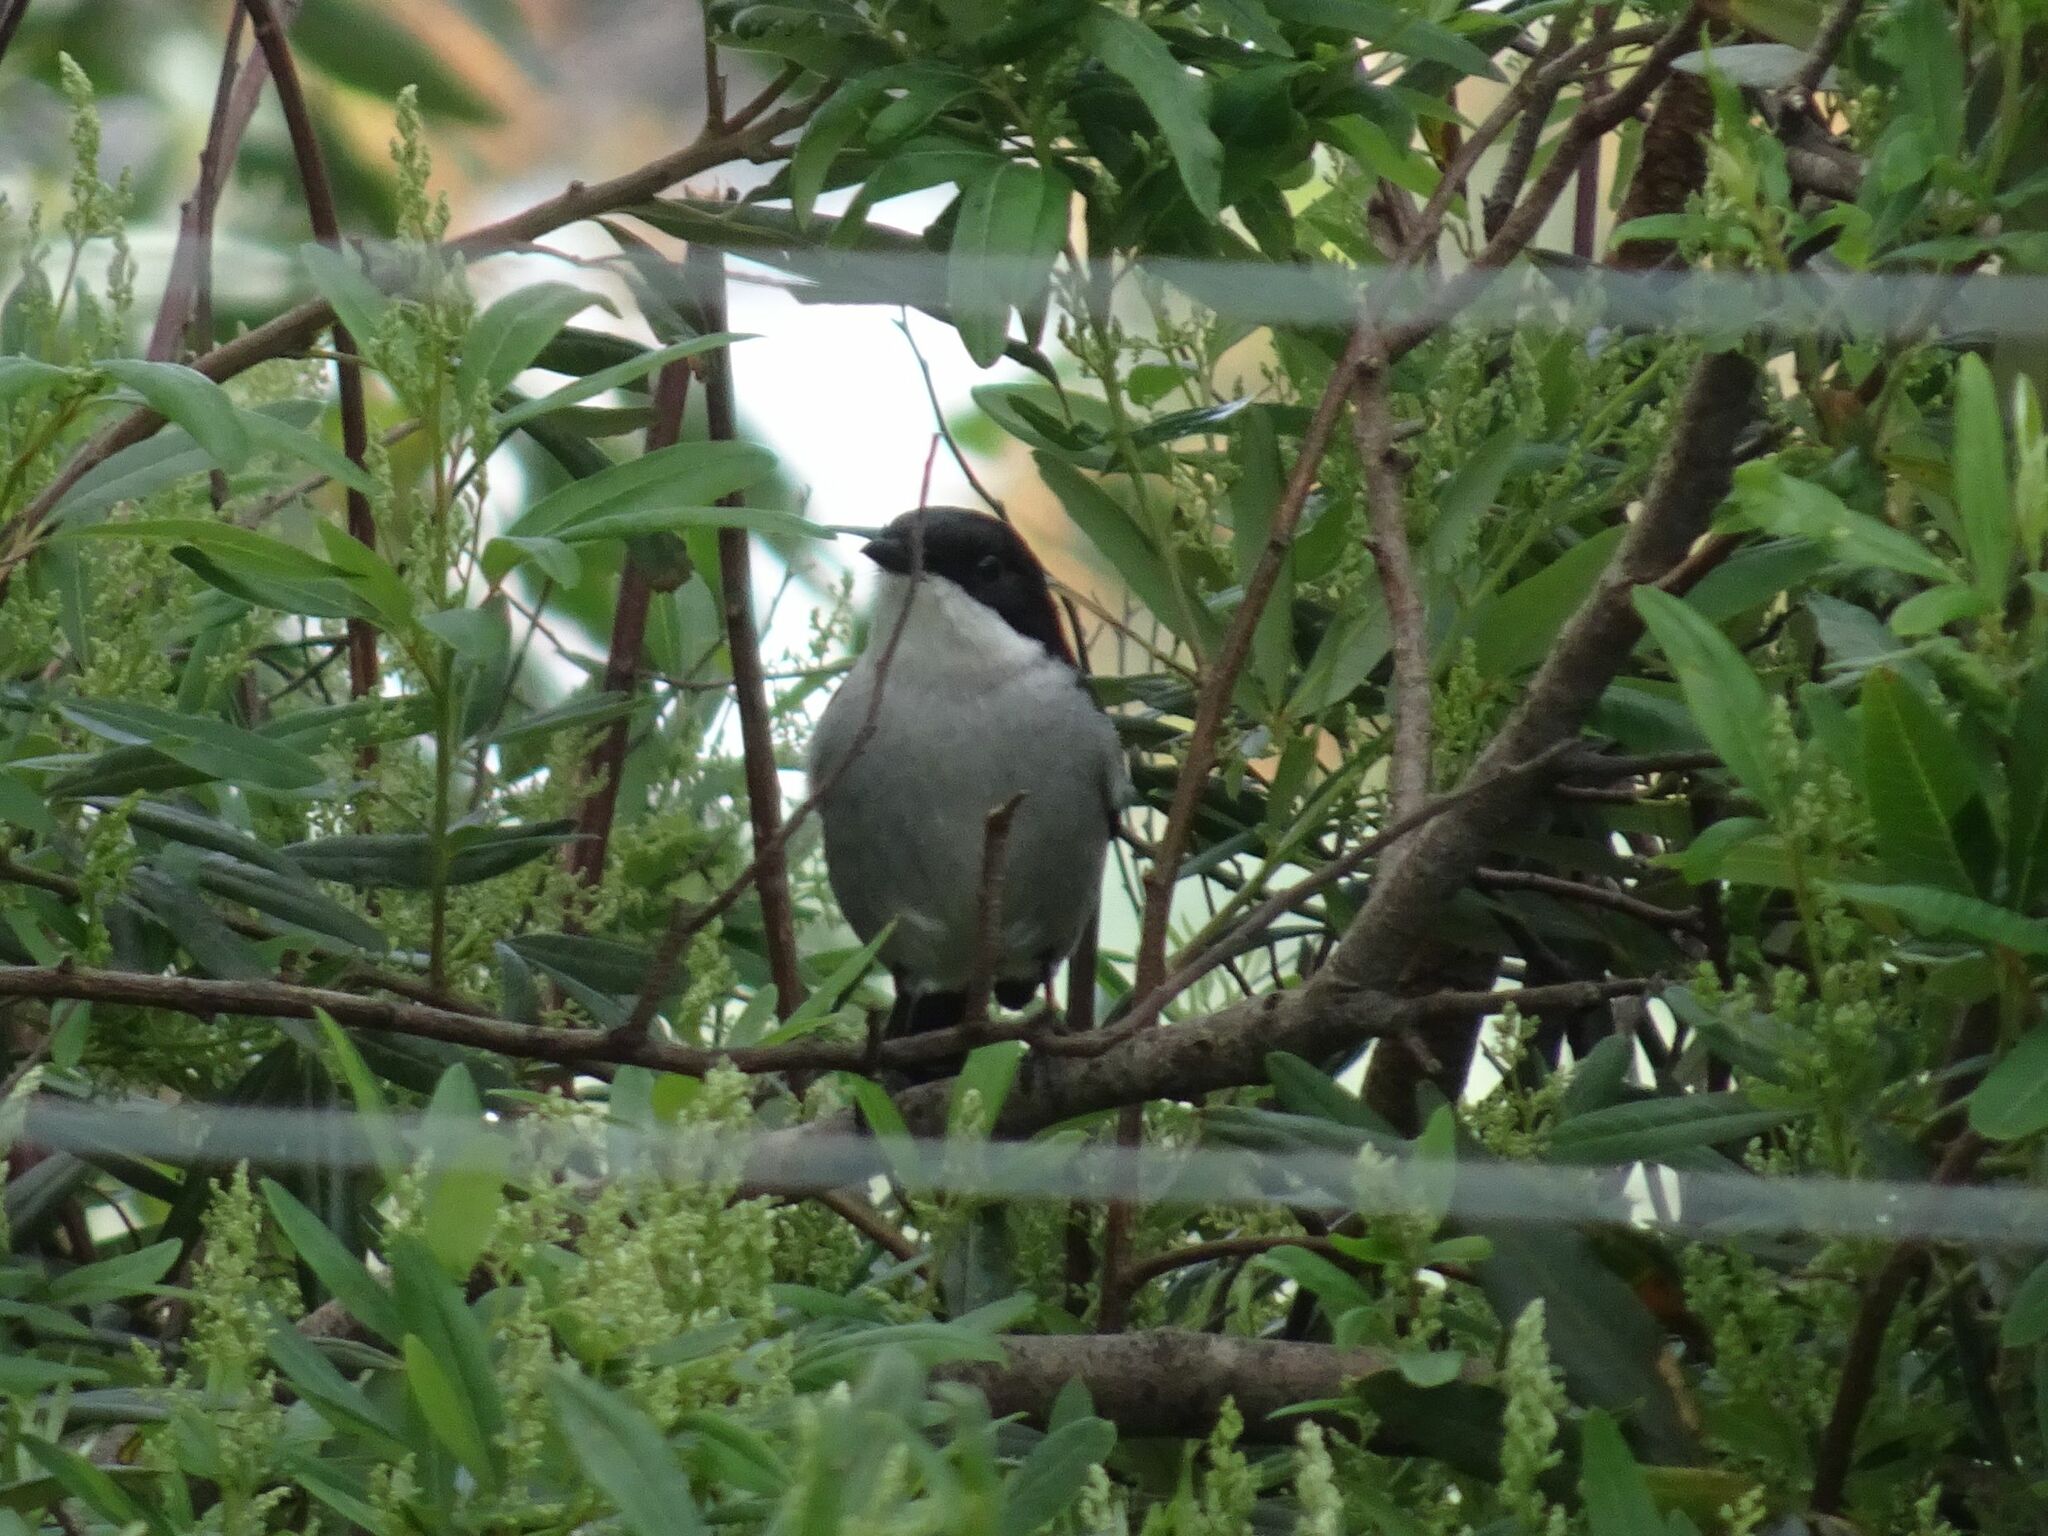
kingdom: Animalia
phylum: Chordata
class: Aves
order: Passeriformes
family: Muscicapidae
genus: Sigelus
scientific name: Sigelus silens
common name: Fiscal flycatcher
